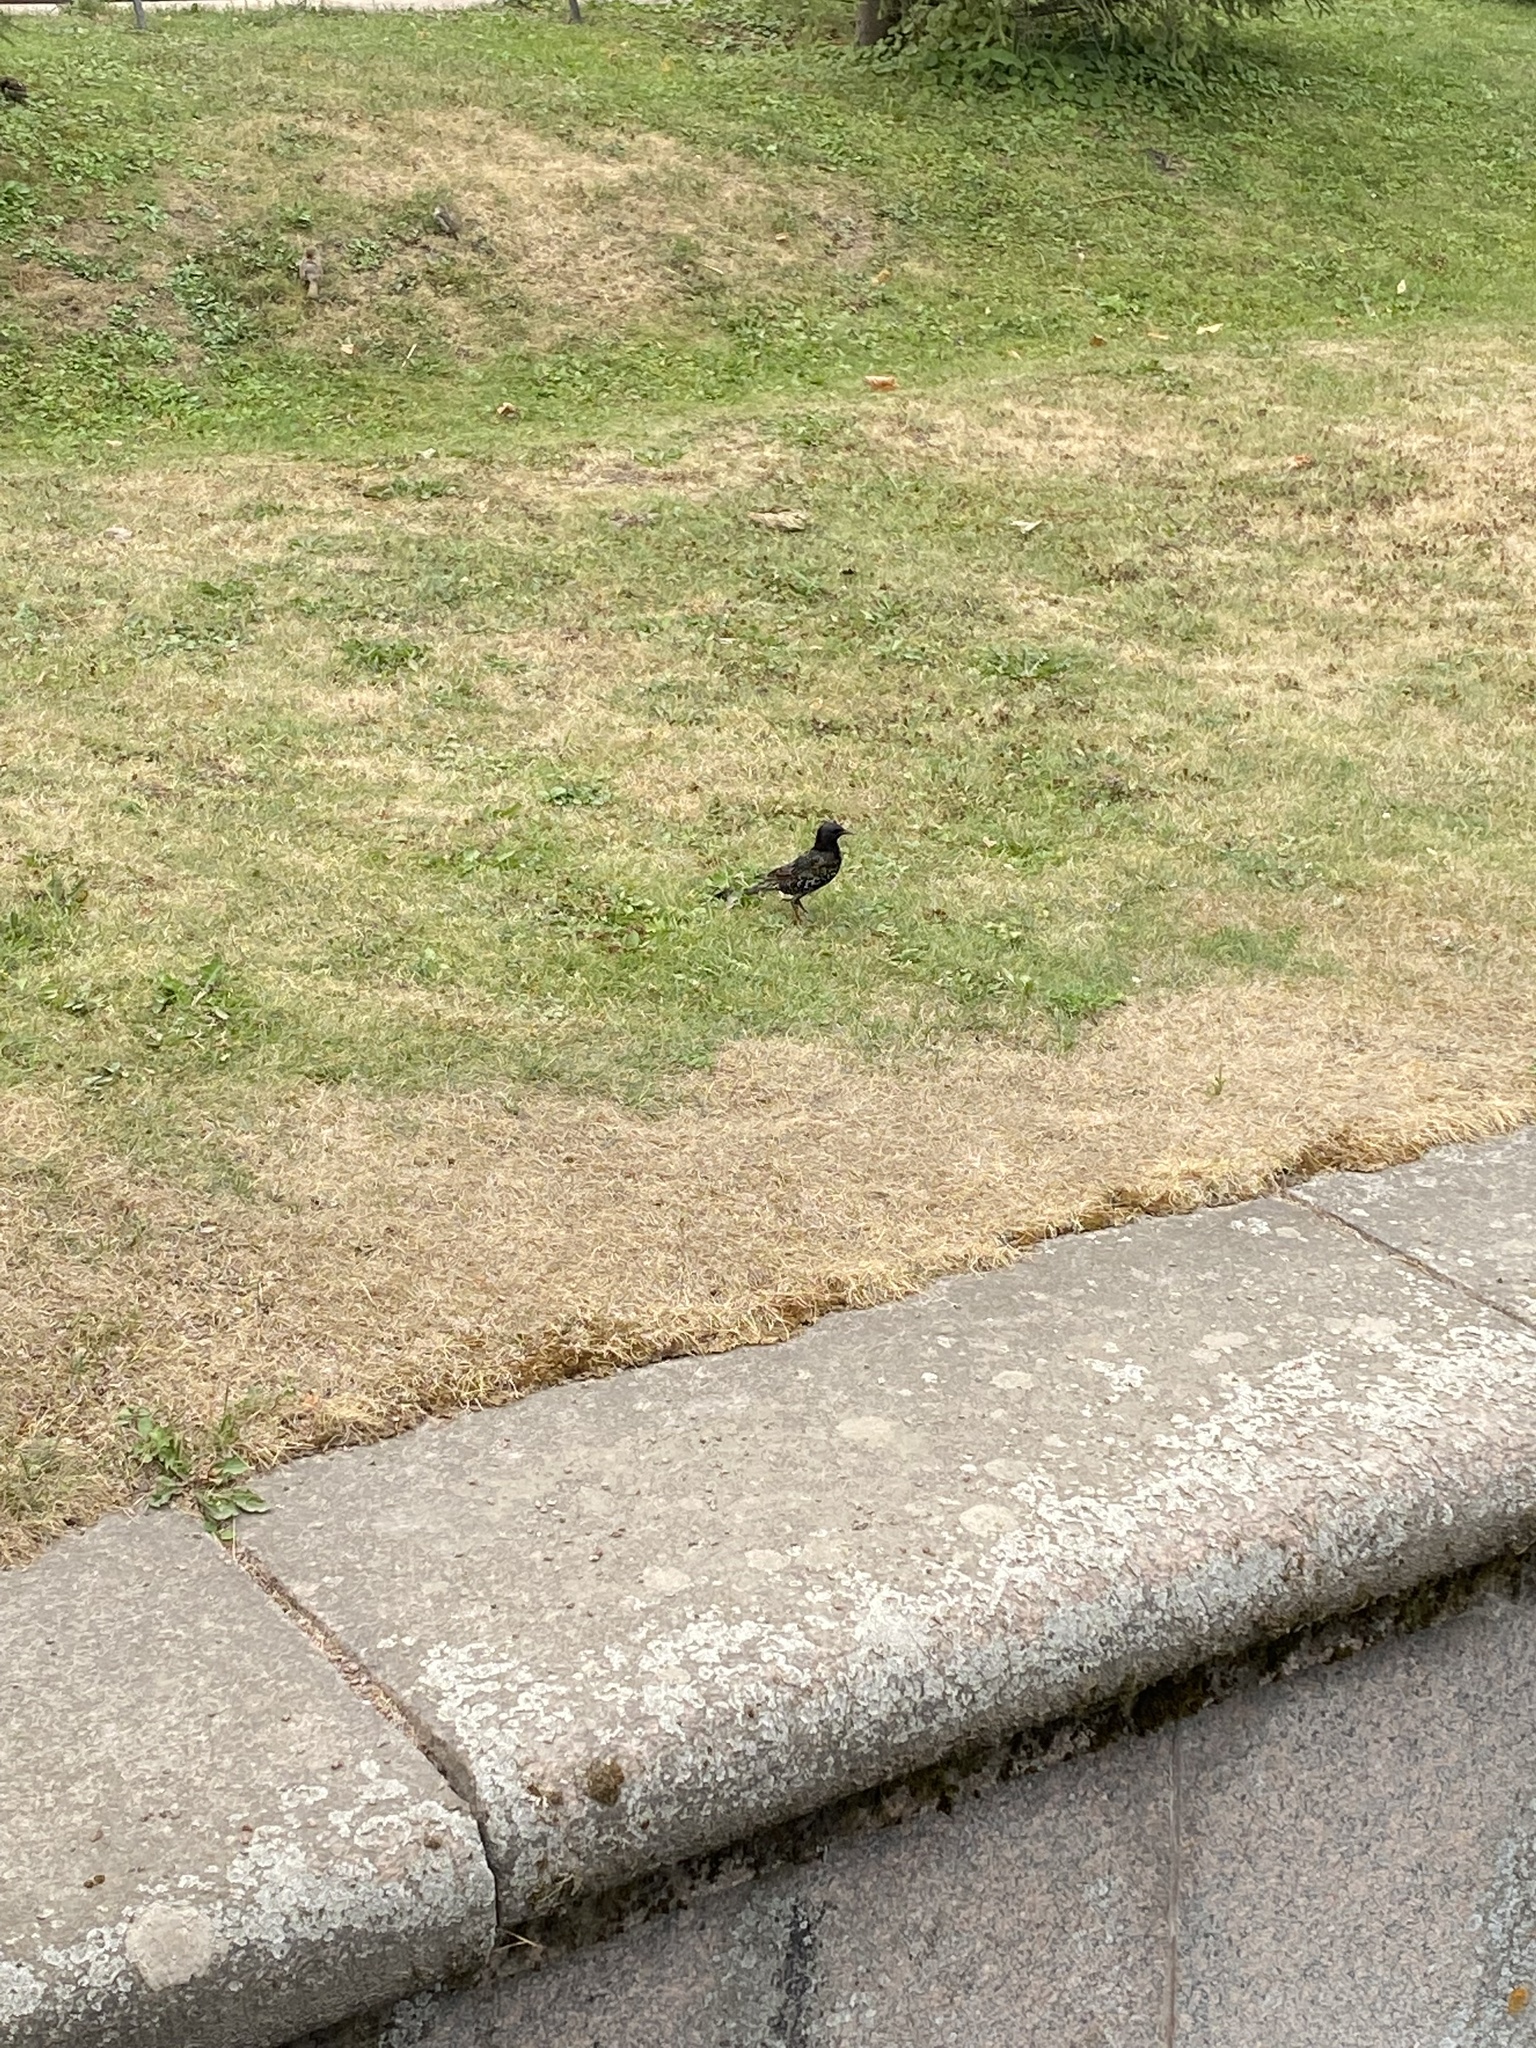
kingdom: Animalia
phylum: Chordata
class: Aves
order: Passeriformes
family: Sturnidae
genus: Sturnus
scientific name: Sturnus vulgaris
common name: Common starling
